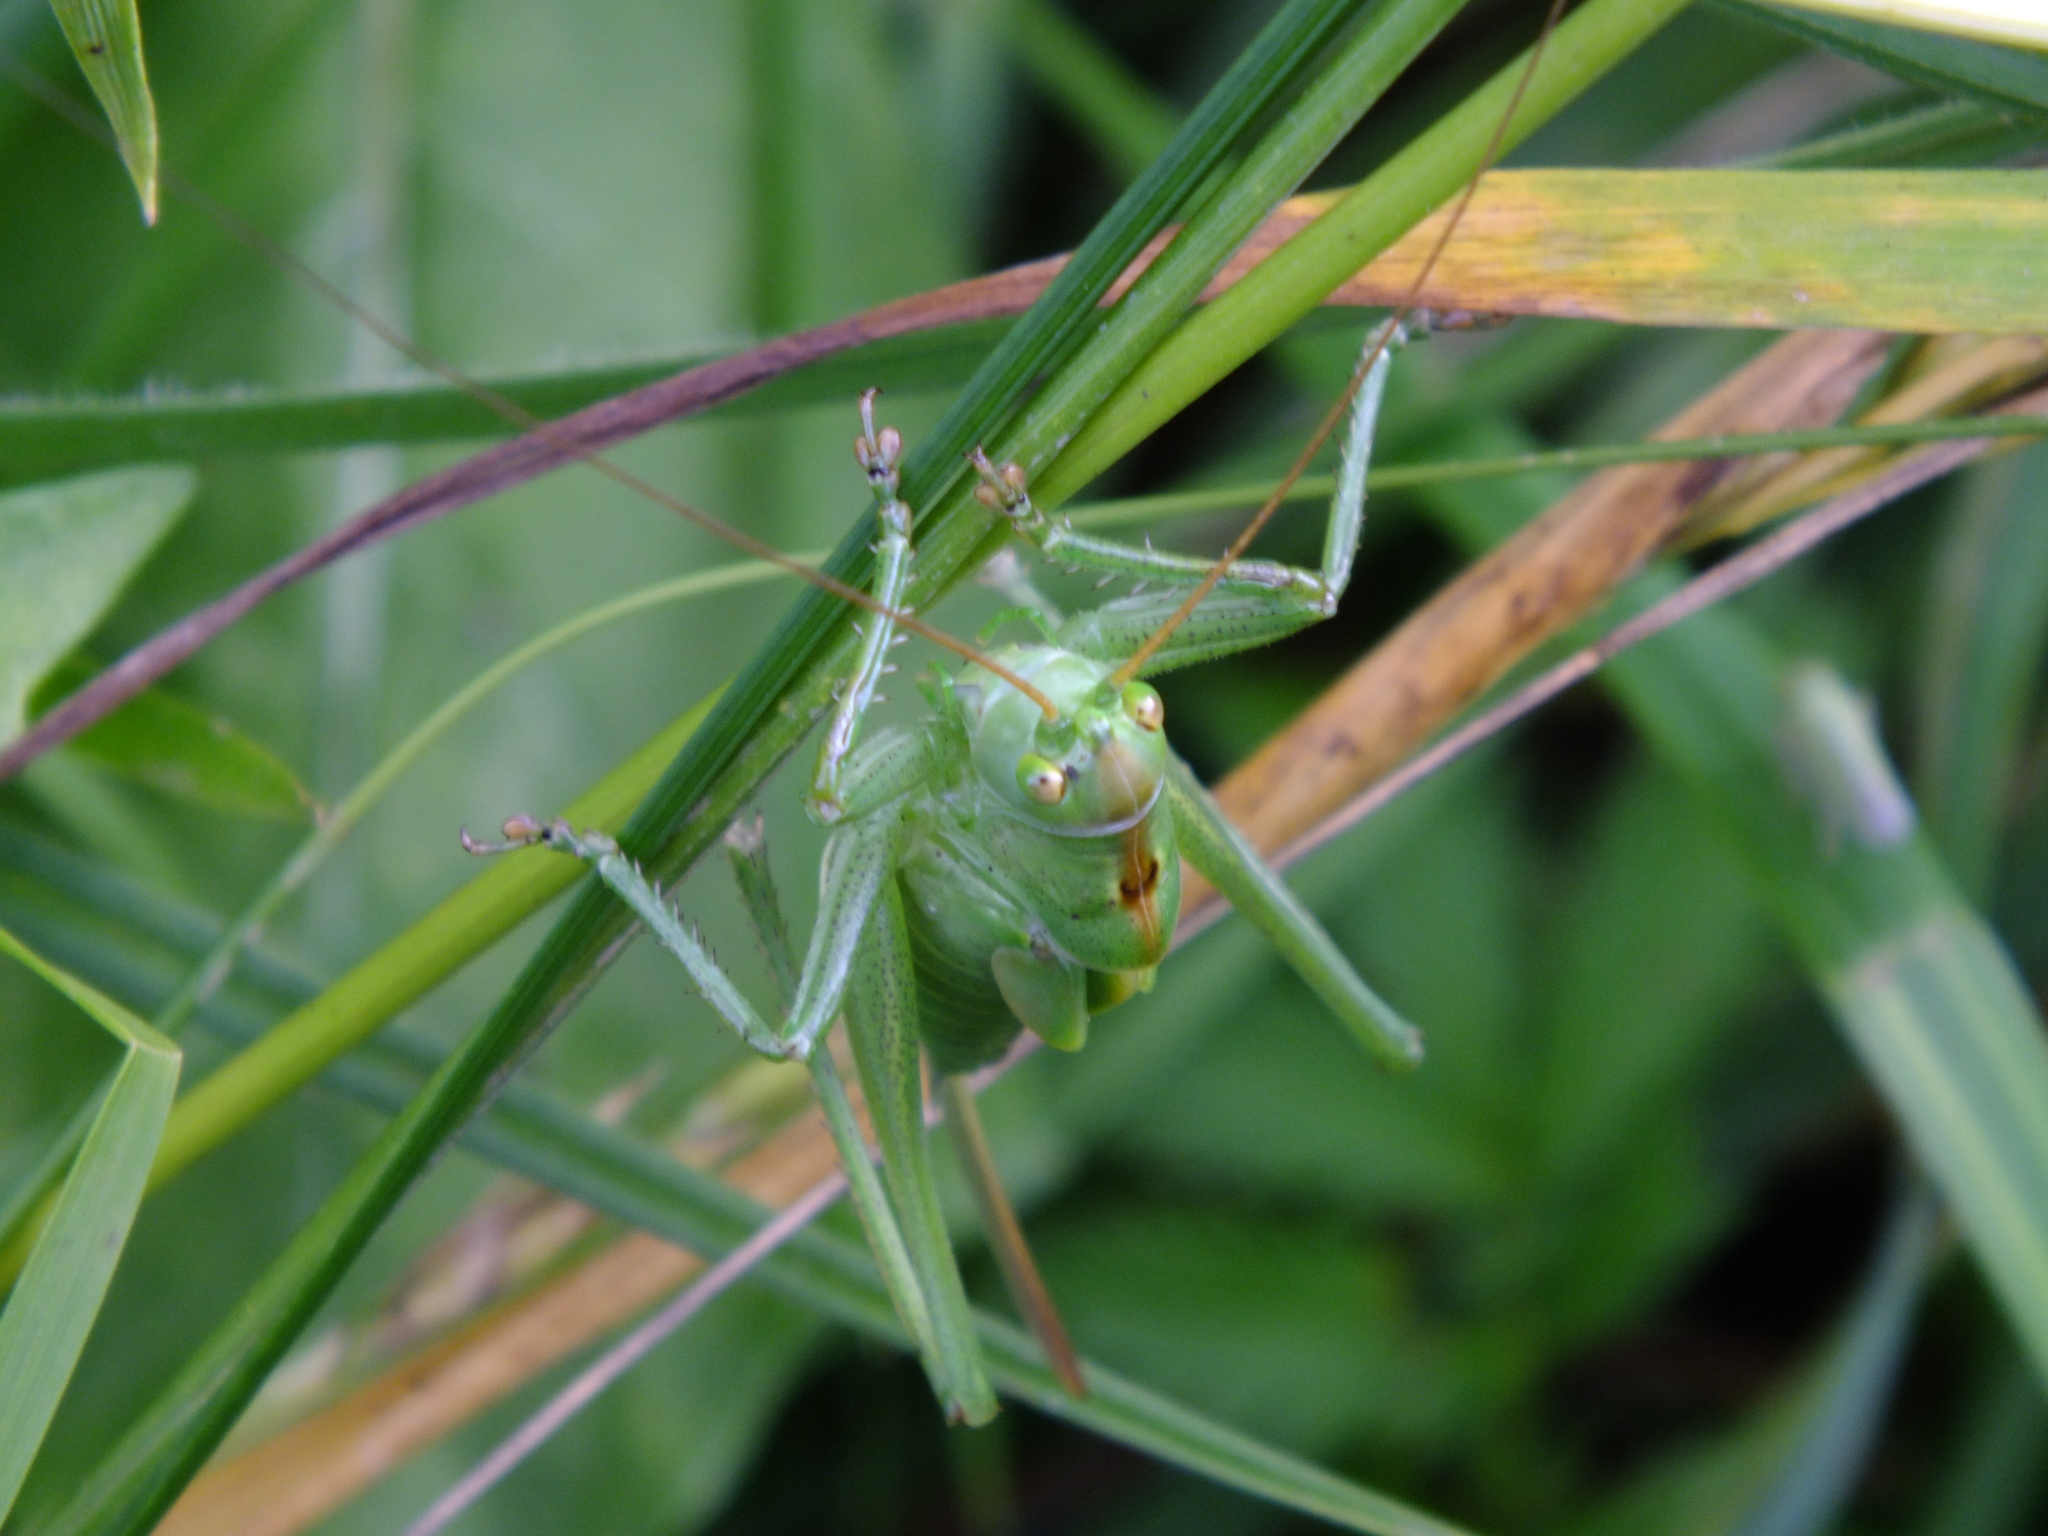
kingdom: Animalia
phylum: Arthropoda
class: Insecta
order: Orthoptera
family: Tettigoniidae
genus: Tettigonia
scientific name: Tettigonia cantans
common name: Upland green bush-cricket
